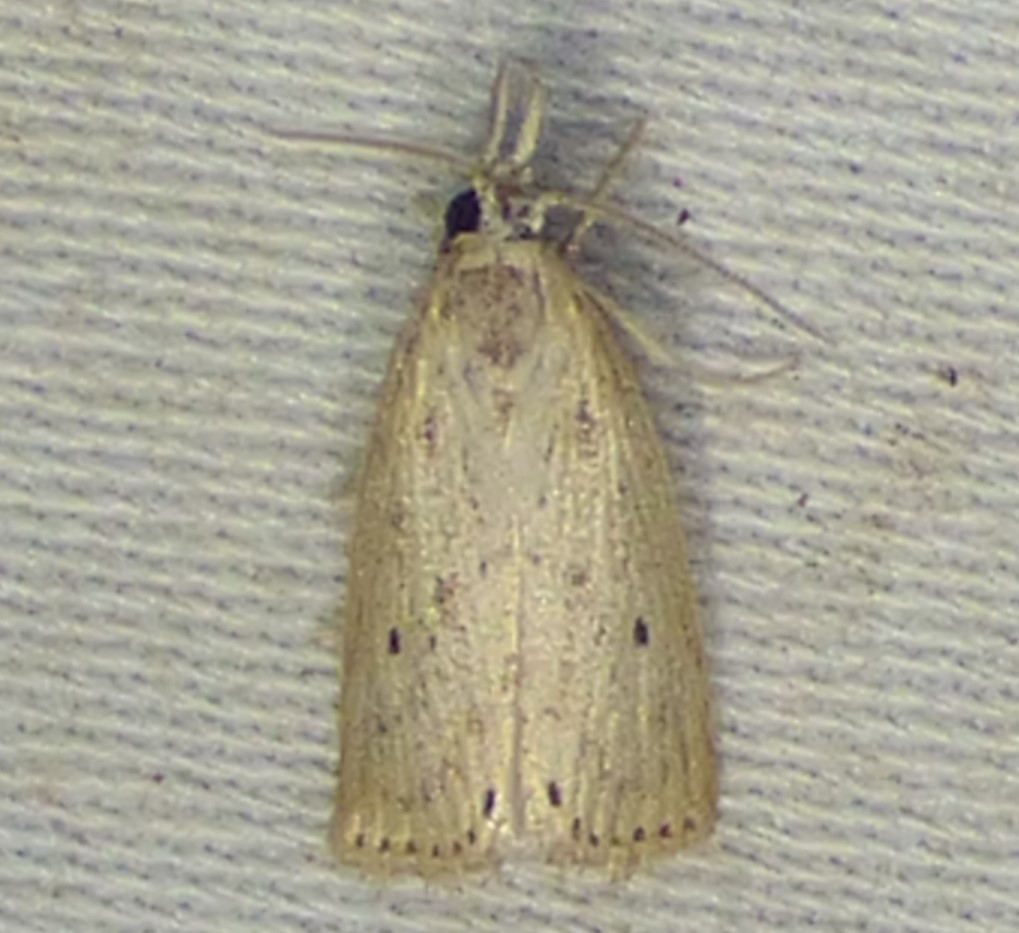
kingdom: Animalia
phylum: Arthropoda
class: Insecta
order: Lepidoptera
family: Crambidae
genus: Diatraea
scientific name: Diatraea lisetta
